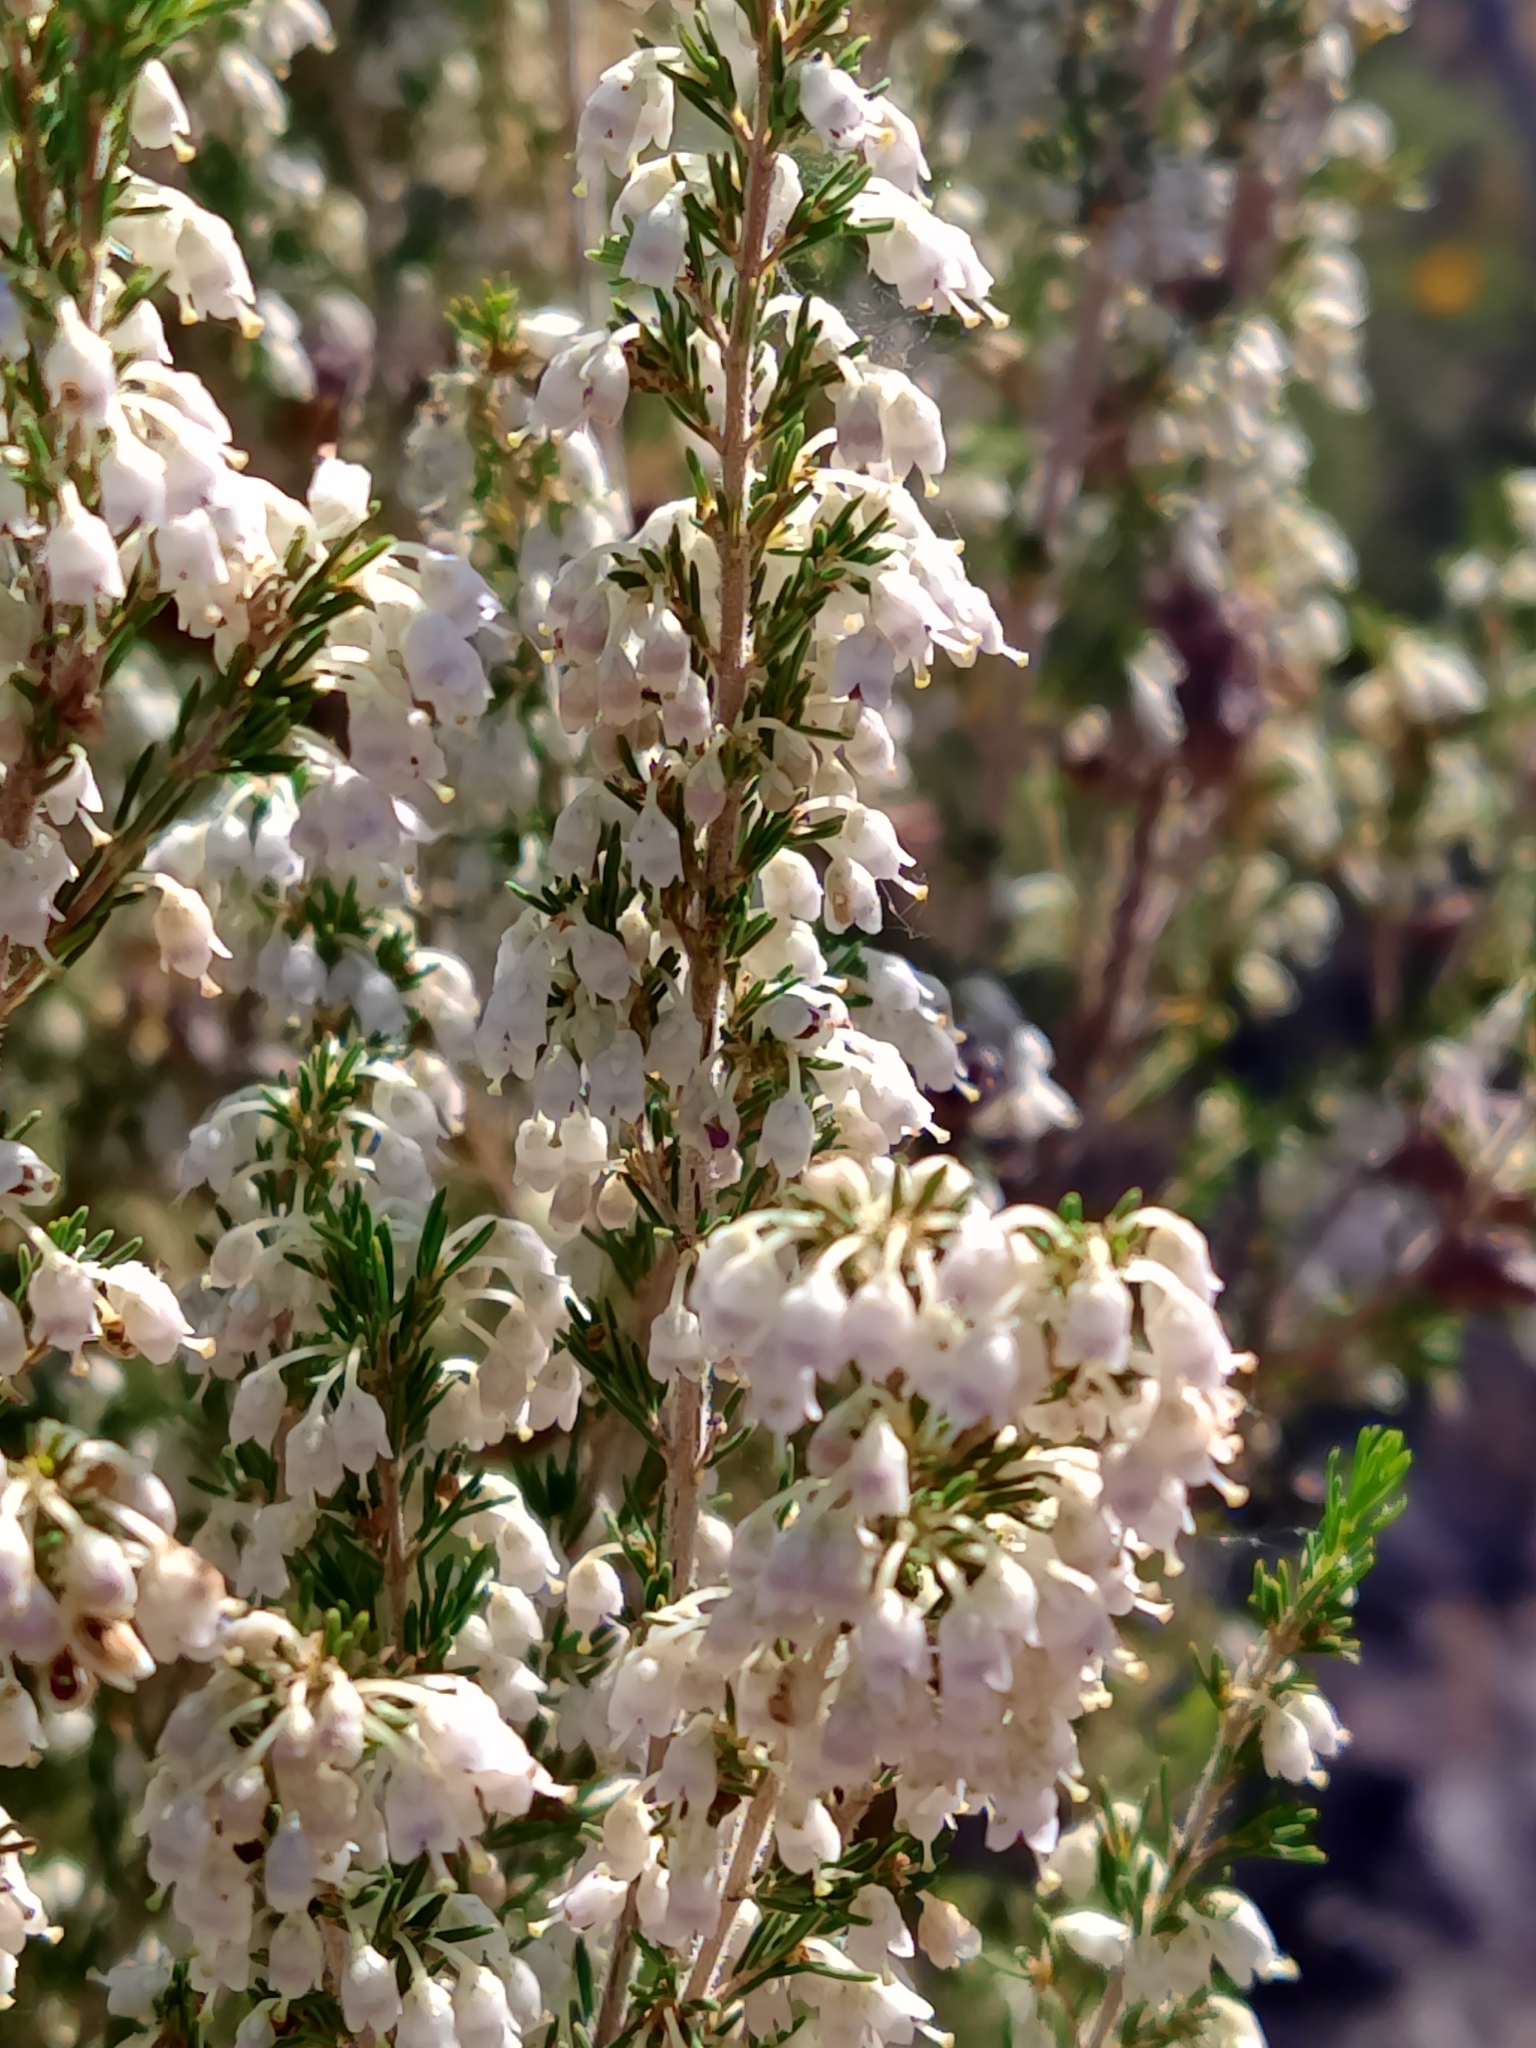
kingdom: Plantae
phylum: Tracheophyta
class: Magnoliopsida
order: Ericales
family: Ericaceae
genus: Erica
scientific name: Erica arborea
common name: Tree heath
